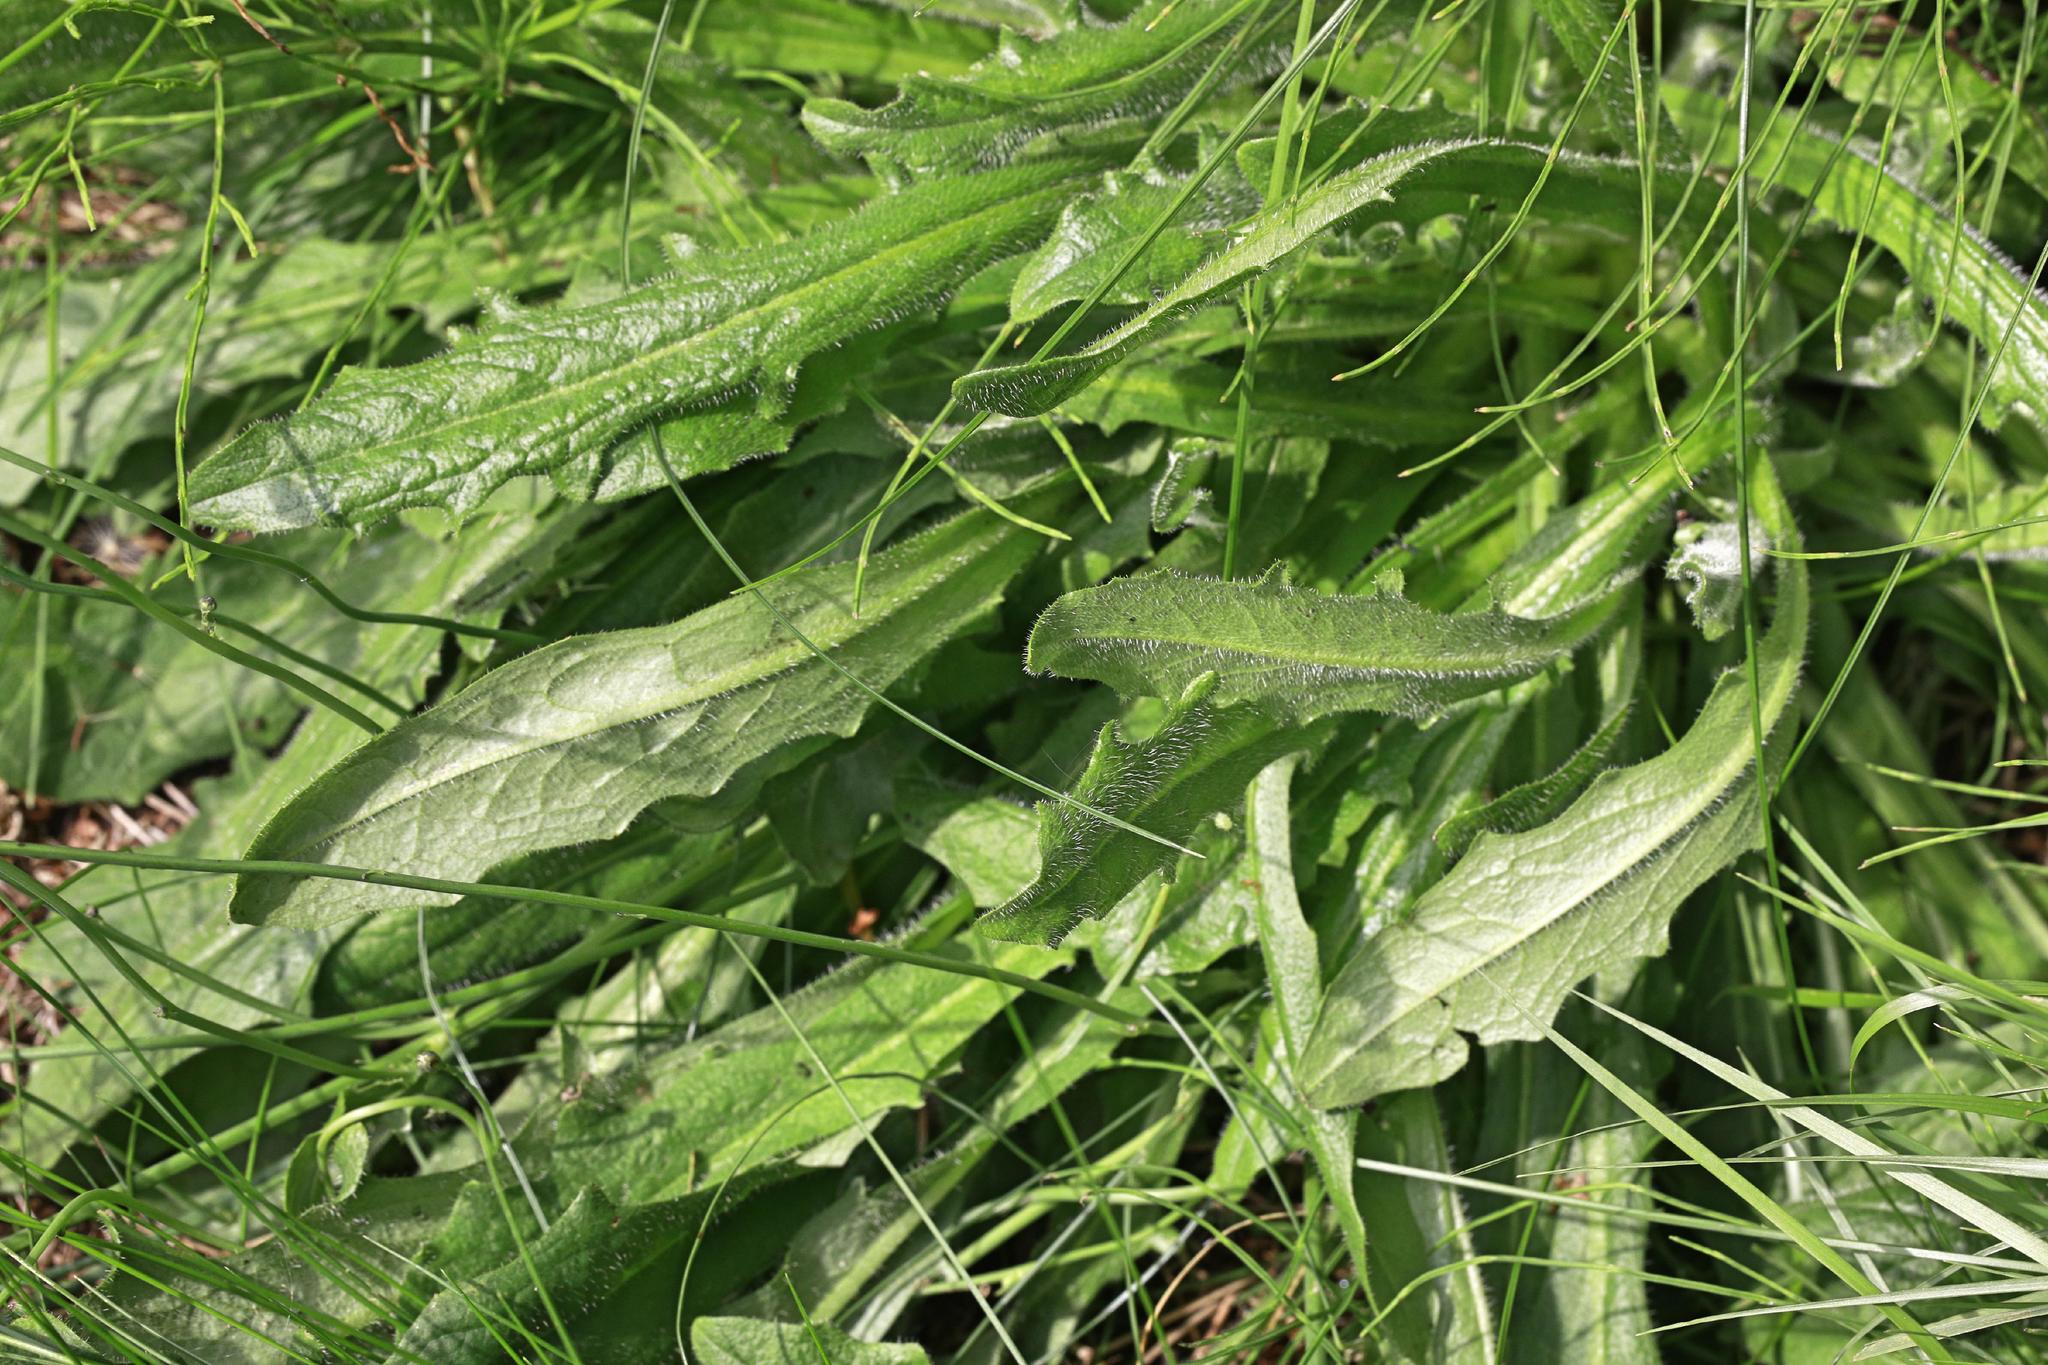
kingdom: Plantae
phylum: Tracheophyta
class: Magnoliopsida
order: Asterales
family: Asteraceae
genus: Hypochaeris
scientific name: Hypochaeris radicata
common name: Flatweed
